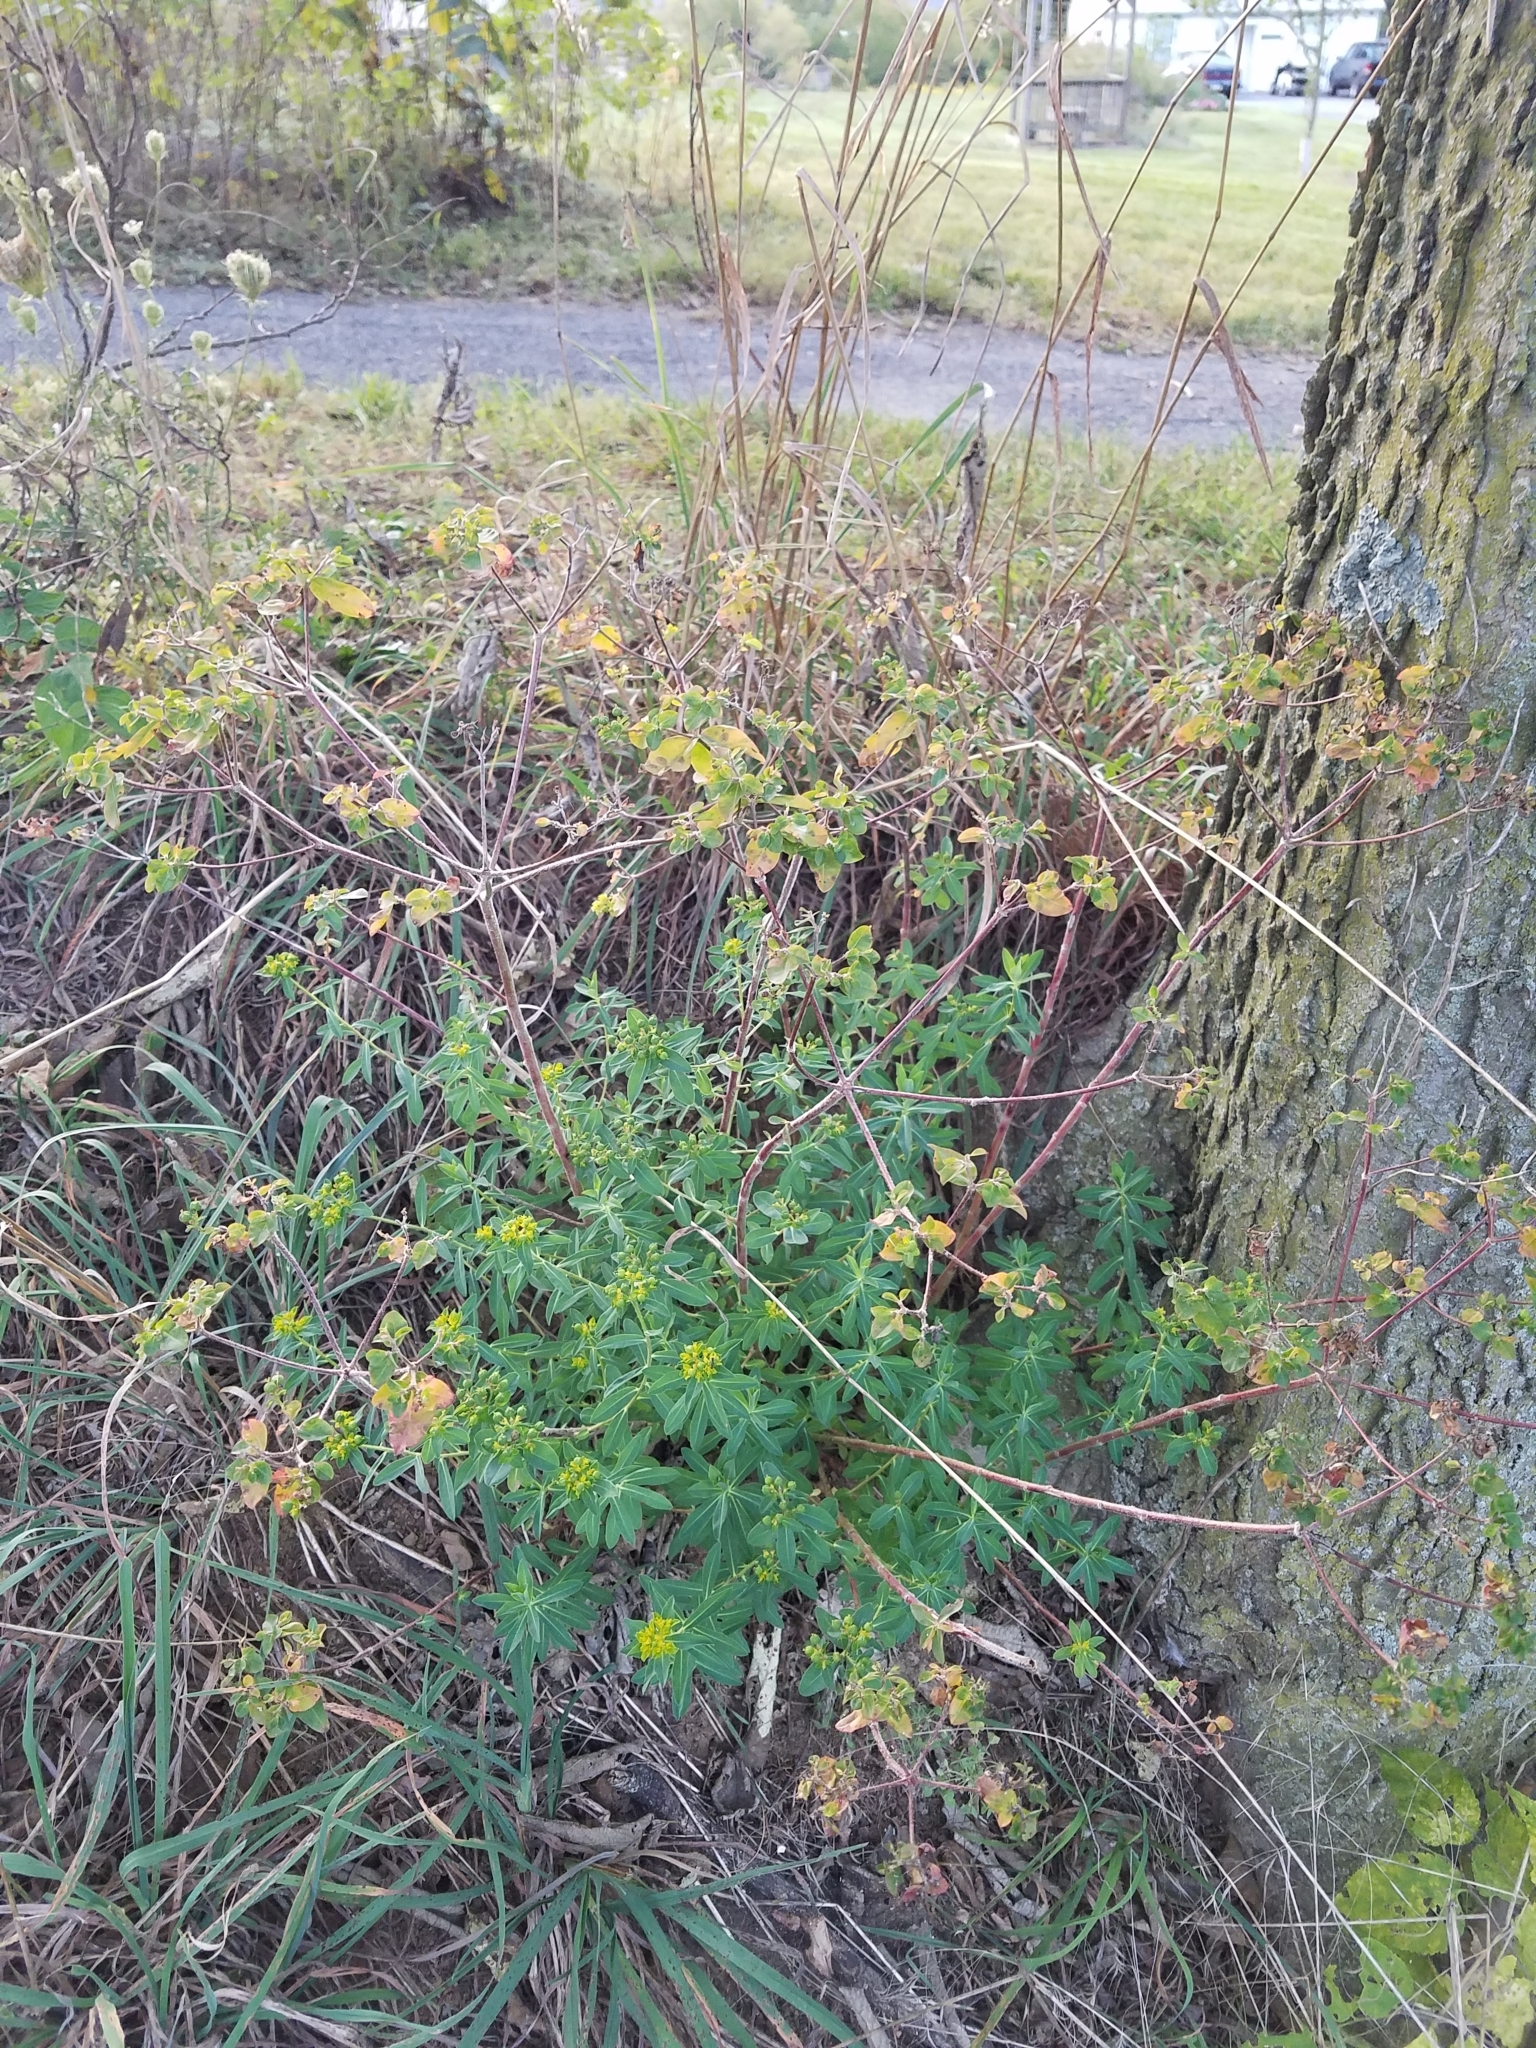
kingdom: Plantae
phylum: Tracheophyta
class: Magnoliopsida
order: Malpighiales
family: Euphorbiaceae
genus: Euphorbia
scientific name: Euphorbia oblongata
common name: Balkan spurge
